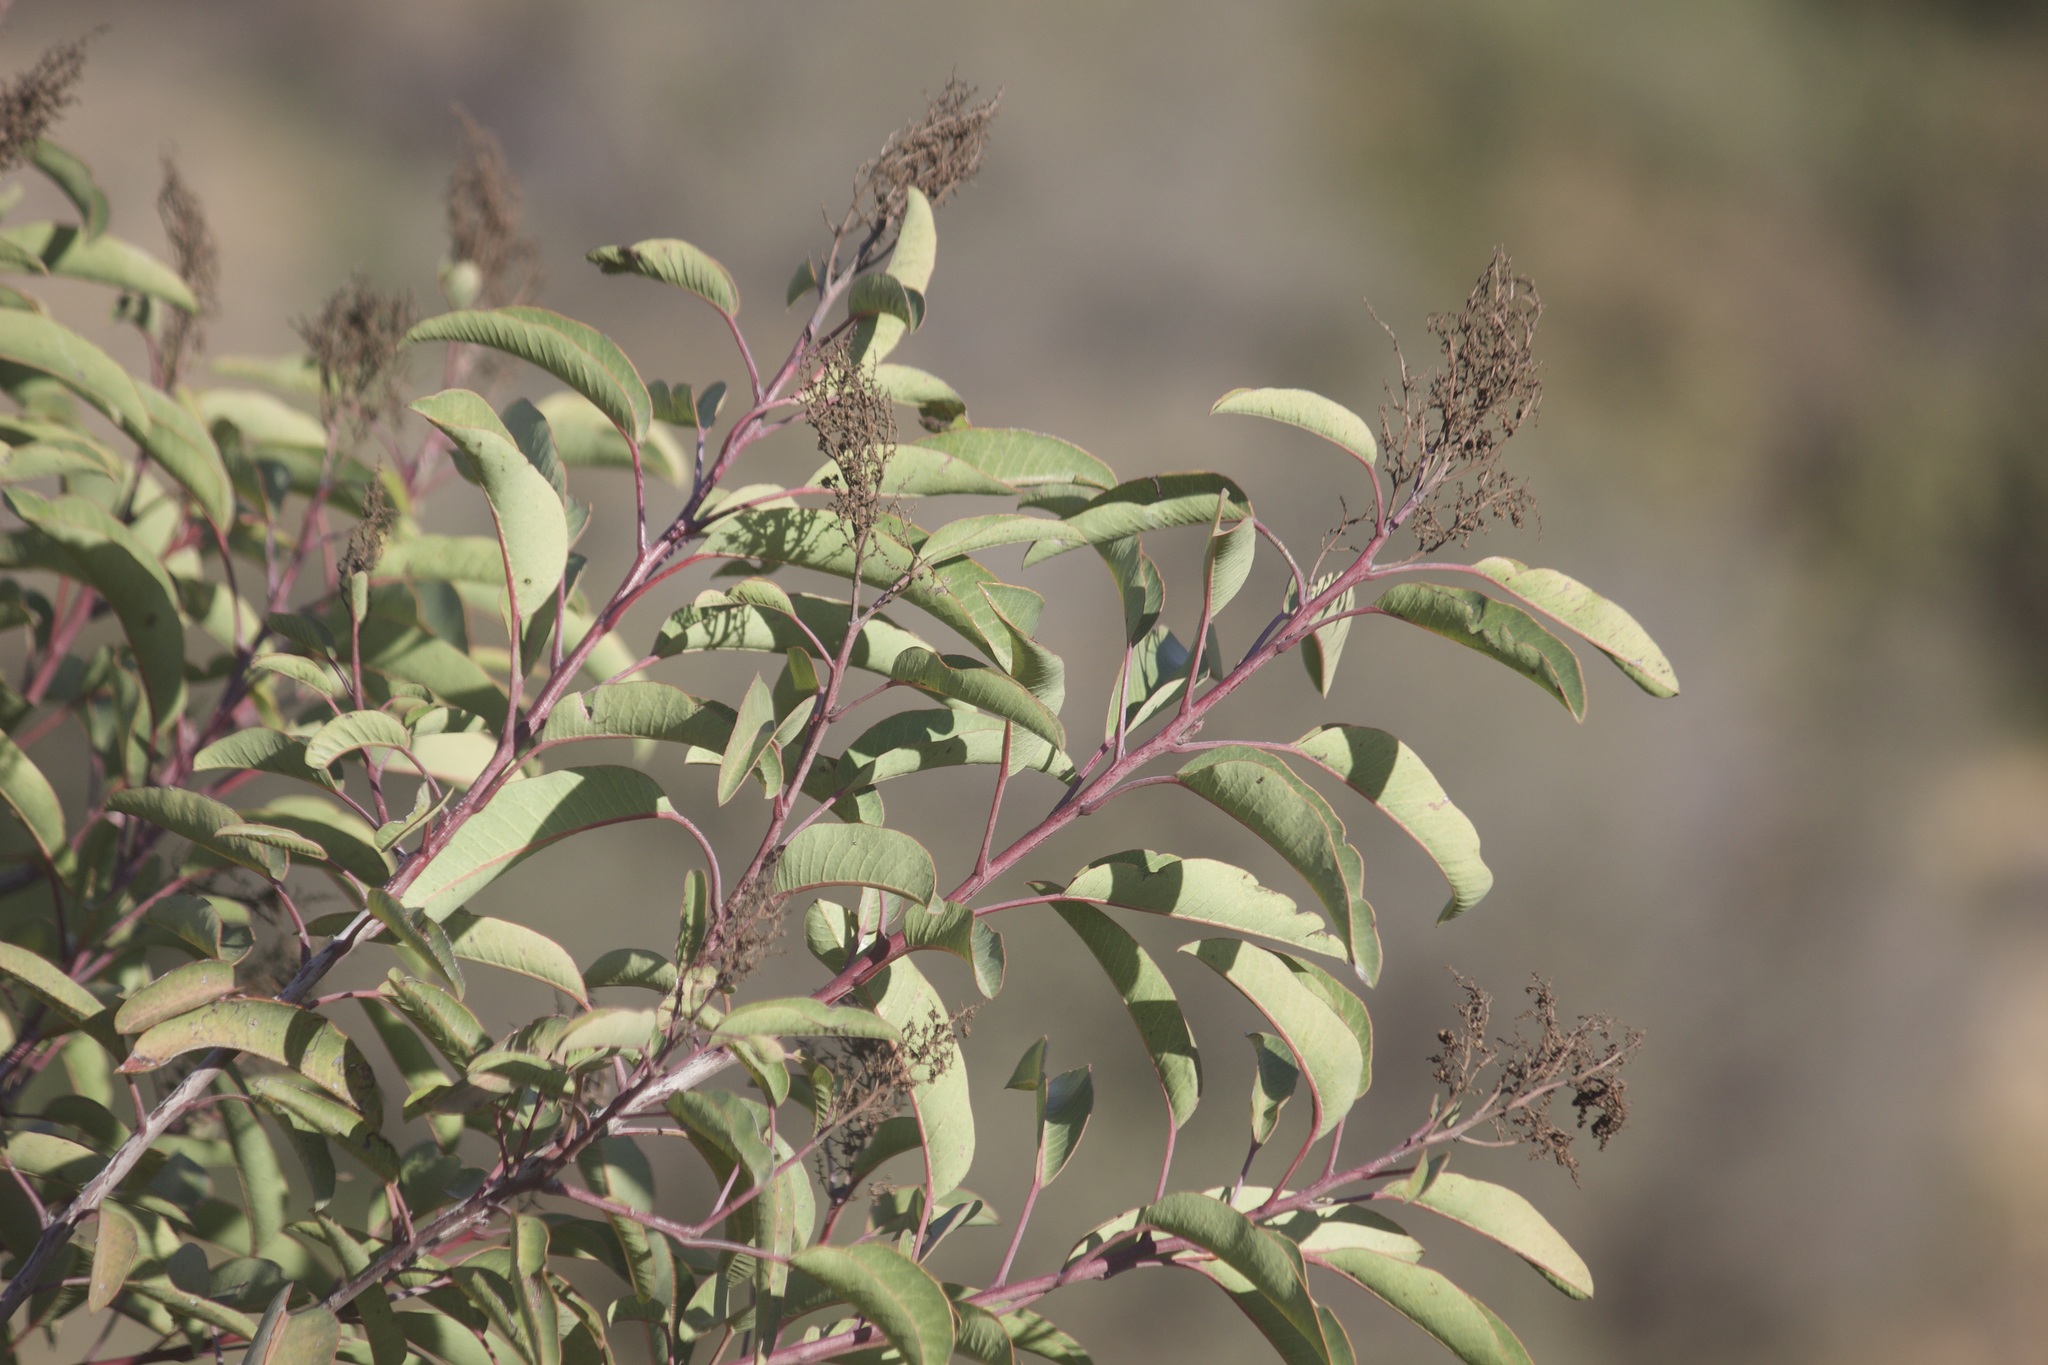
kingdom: Plantae
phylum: Tracheophyta
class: Magnoliopsida
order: Sapindales
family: Anacardiaceae
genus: Malosma
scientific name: Malosma laurina
